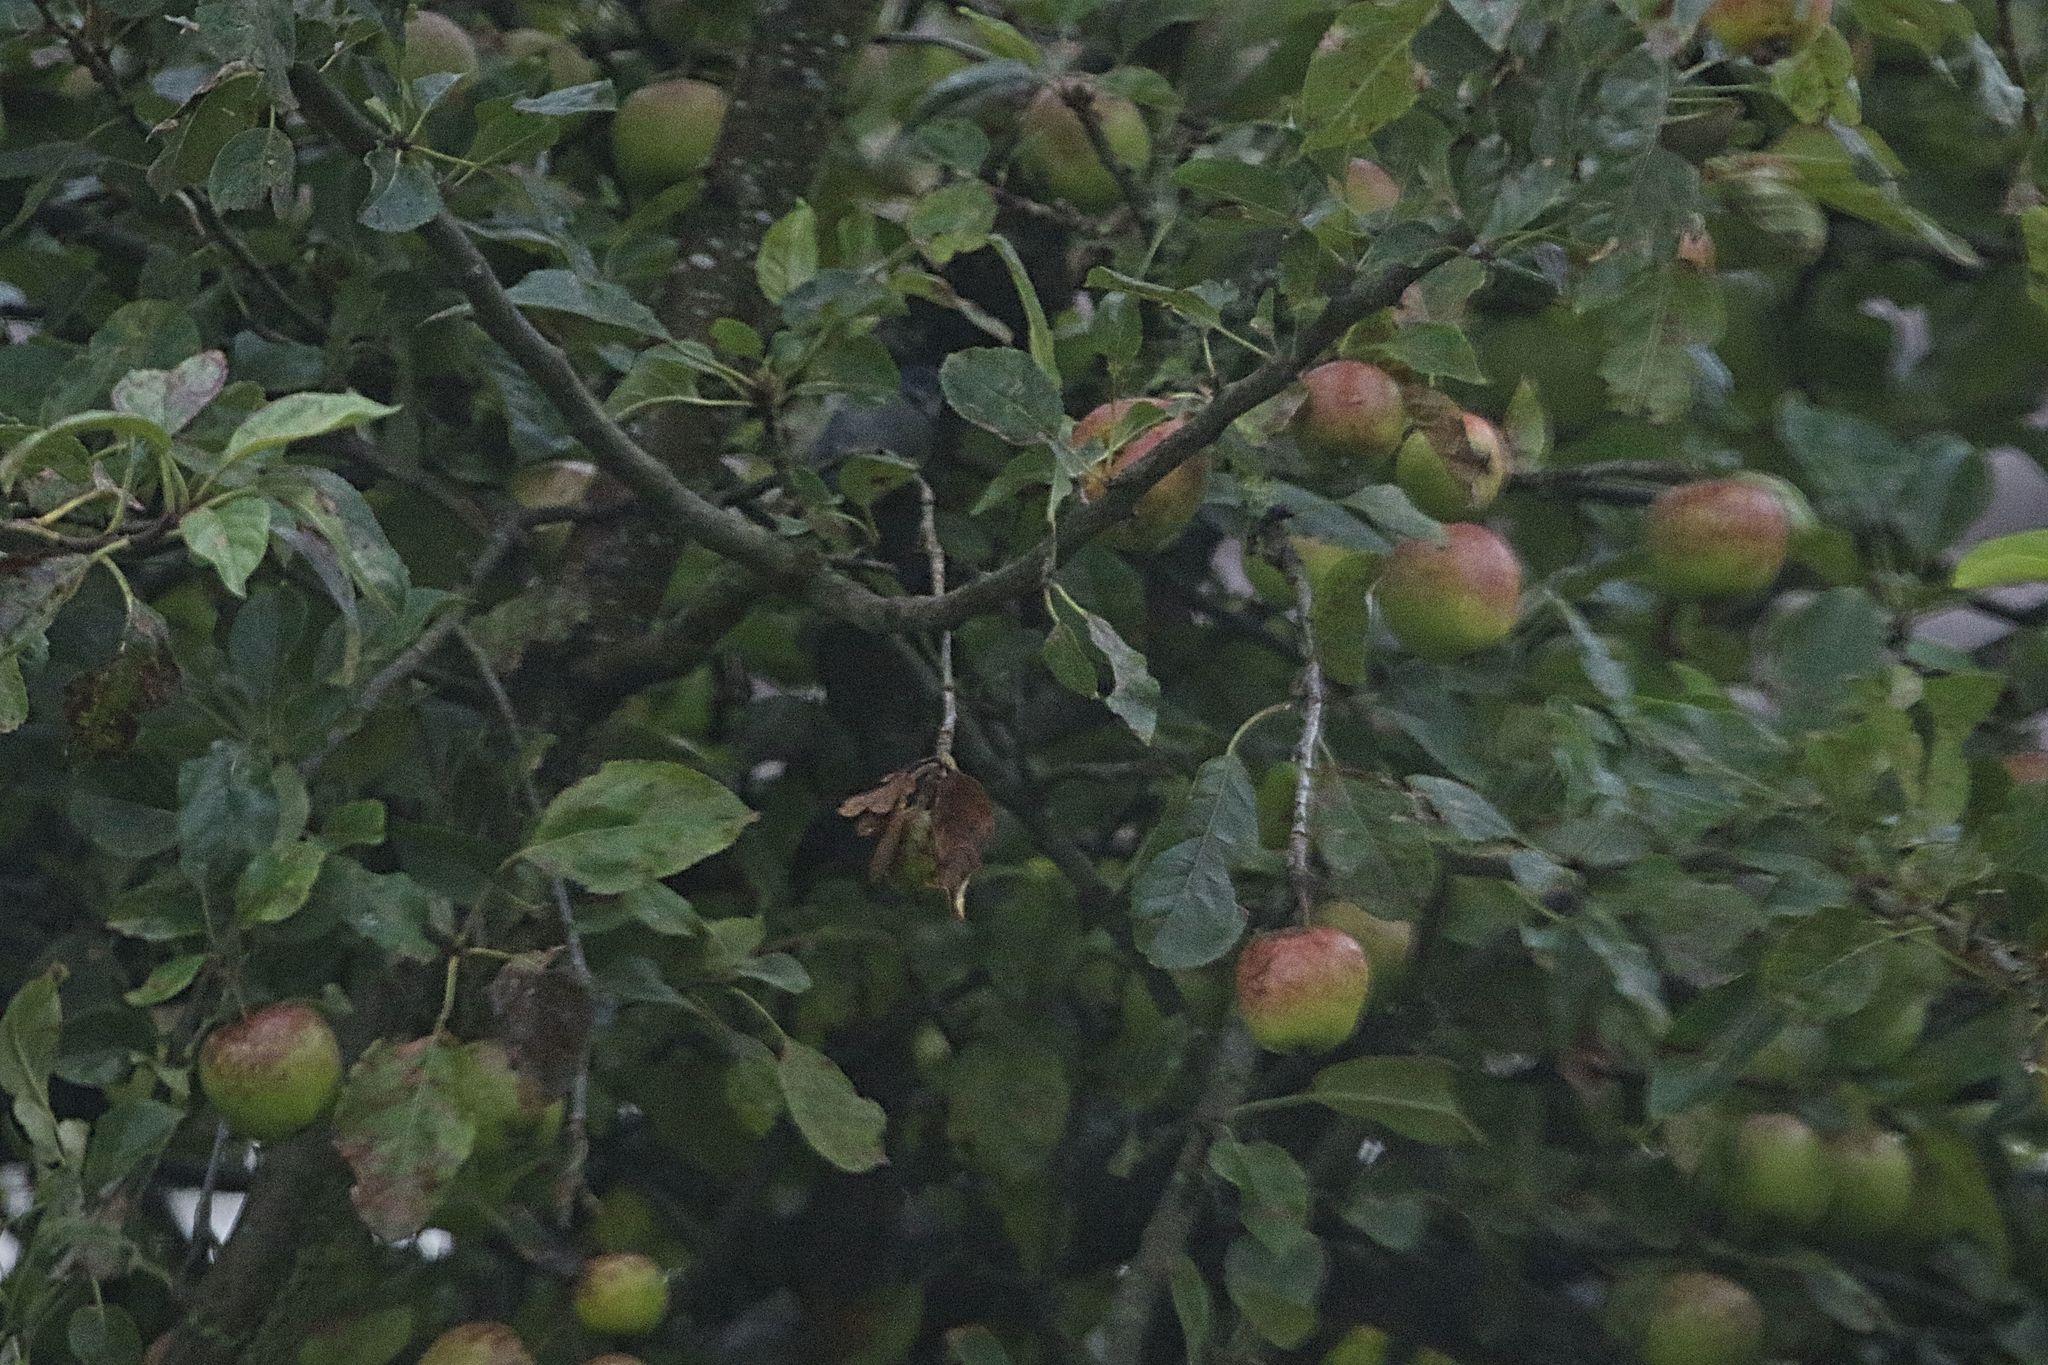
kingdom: Plantae
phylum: Tracheophyta
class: Magnoliopsida
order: Rosales
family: Rosaceae
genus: Malus
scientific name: Malus domestica
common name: Apple
